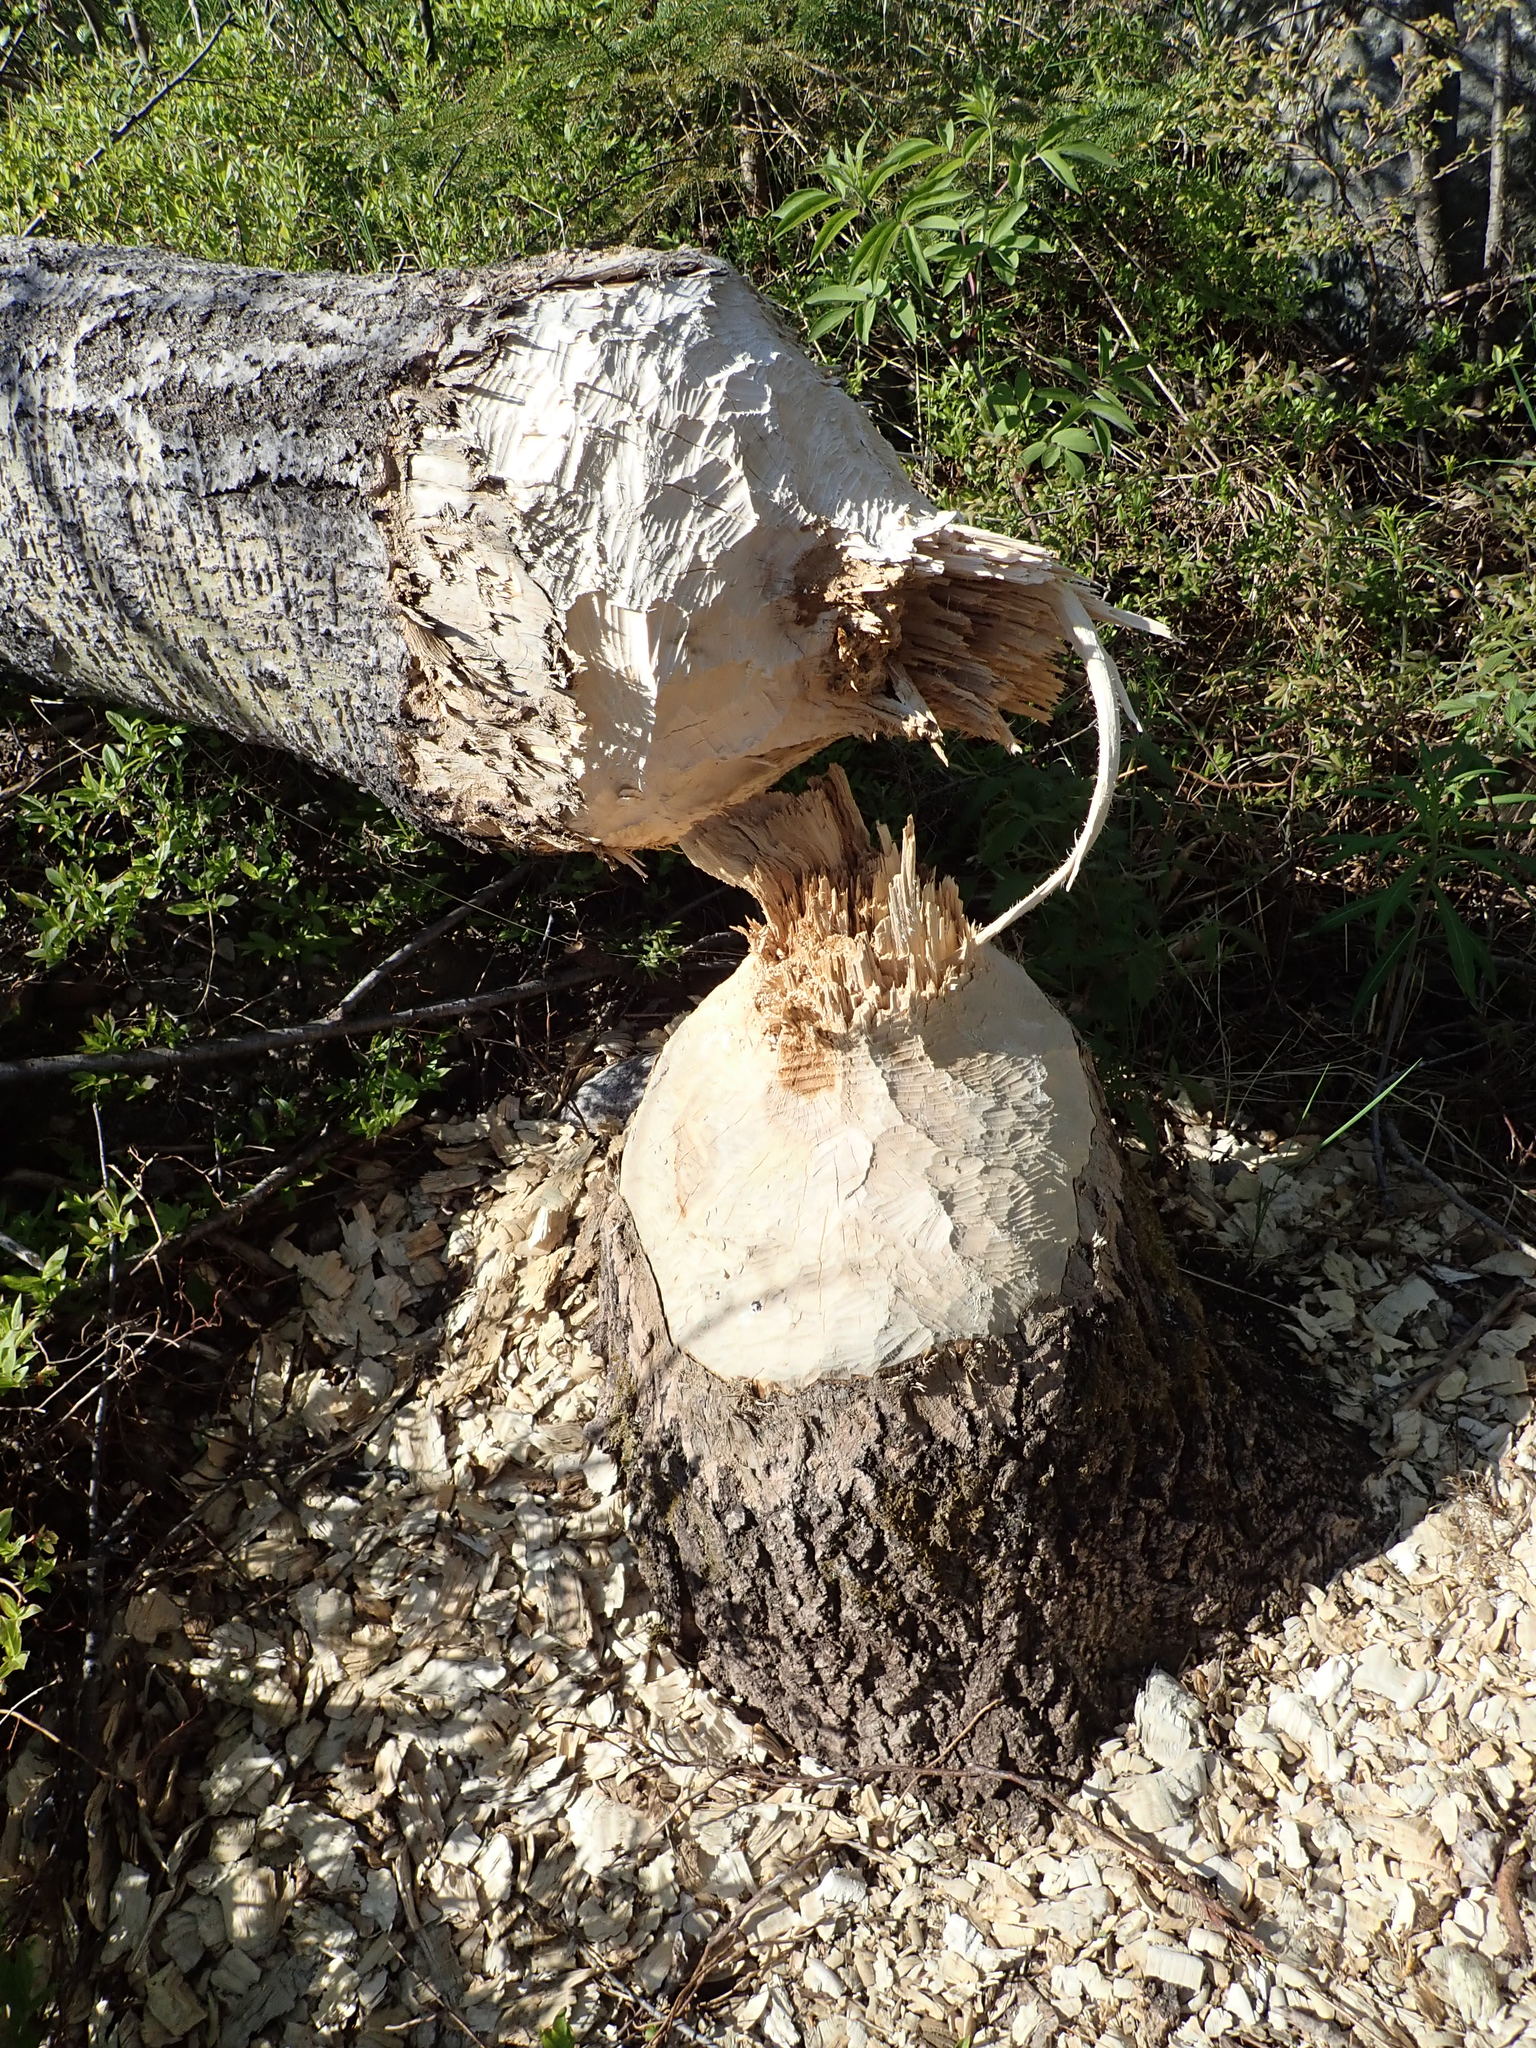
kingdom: Animalia
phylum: Chordata
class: Mammalia
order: Rodentia
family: Castoridae
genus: Castor
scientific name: Castor canadensis
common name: American beaver
